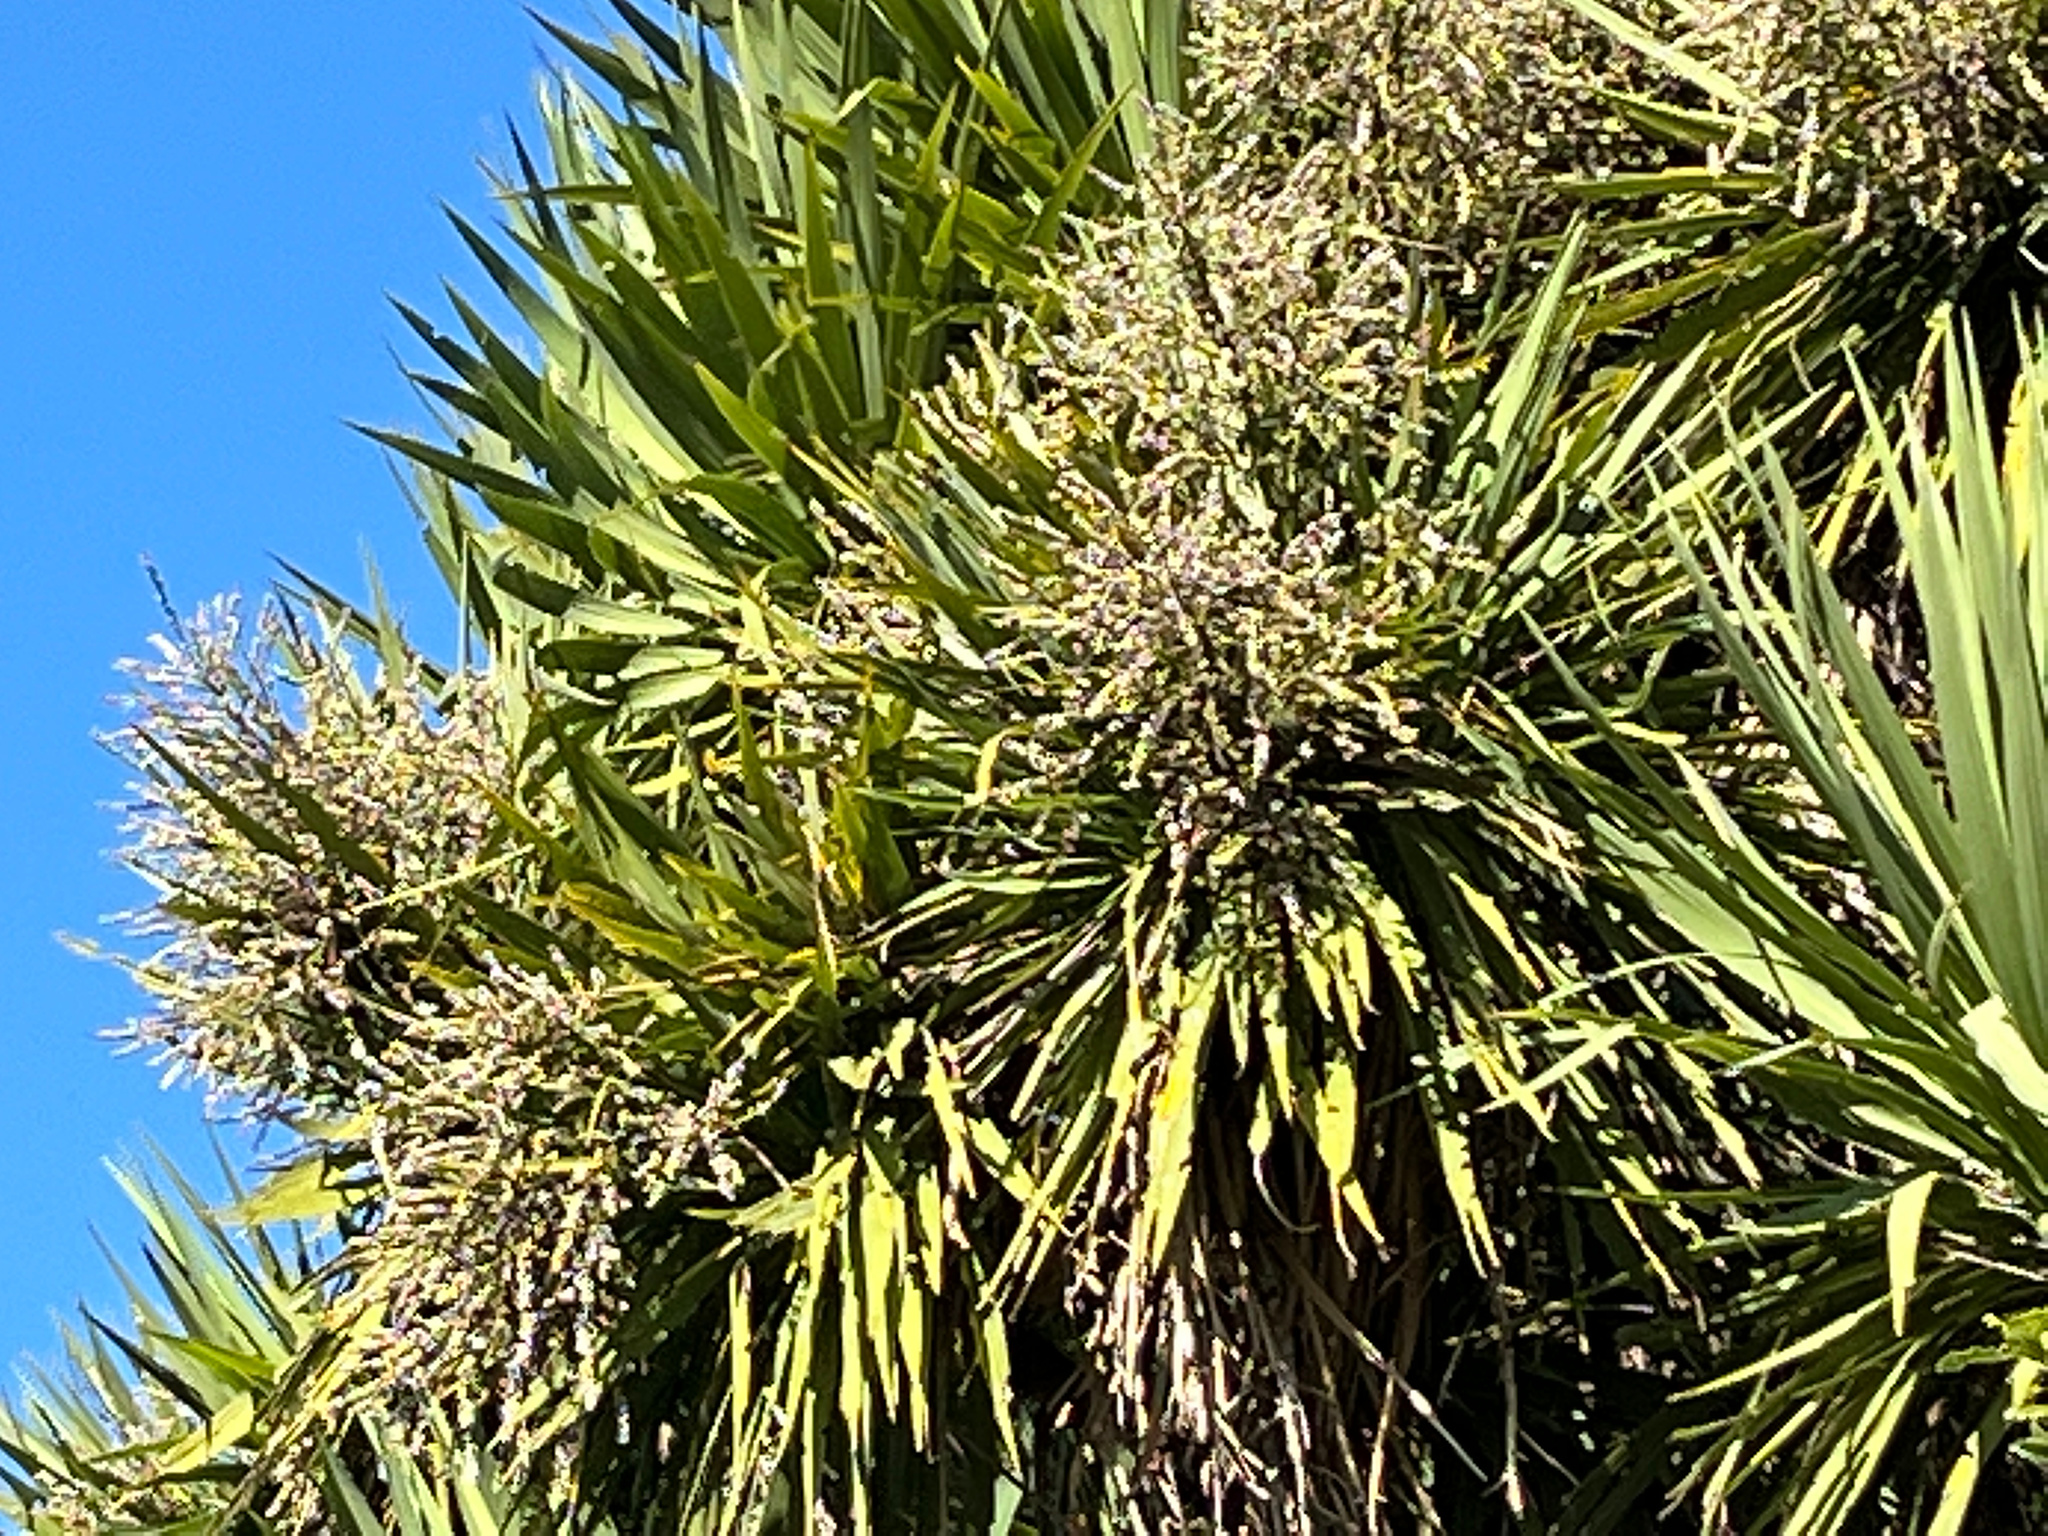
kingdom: Plantae
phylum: Tracheophyta
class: Liliopsida
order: Asparagales
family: Asparagaceae
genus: Cordyline
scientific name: Cordyline australis
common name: Cabbage-palm
